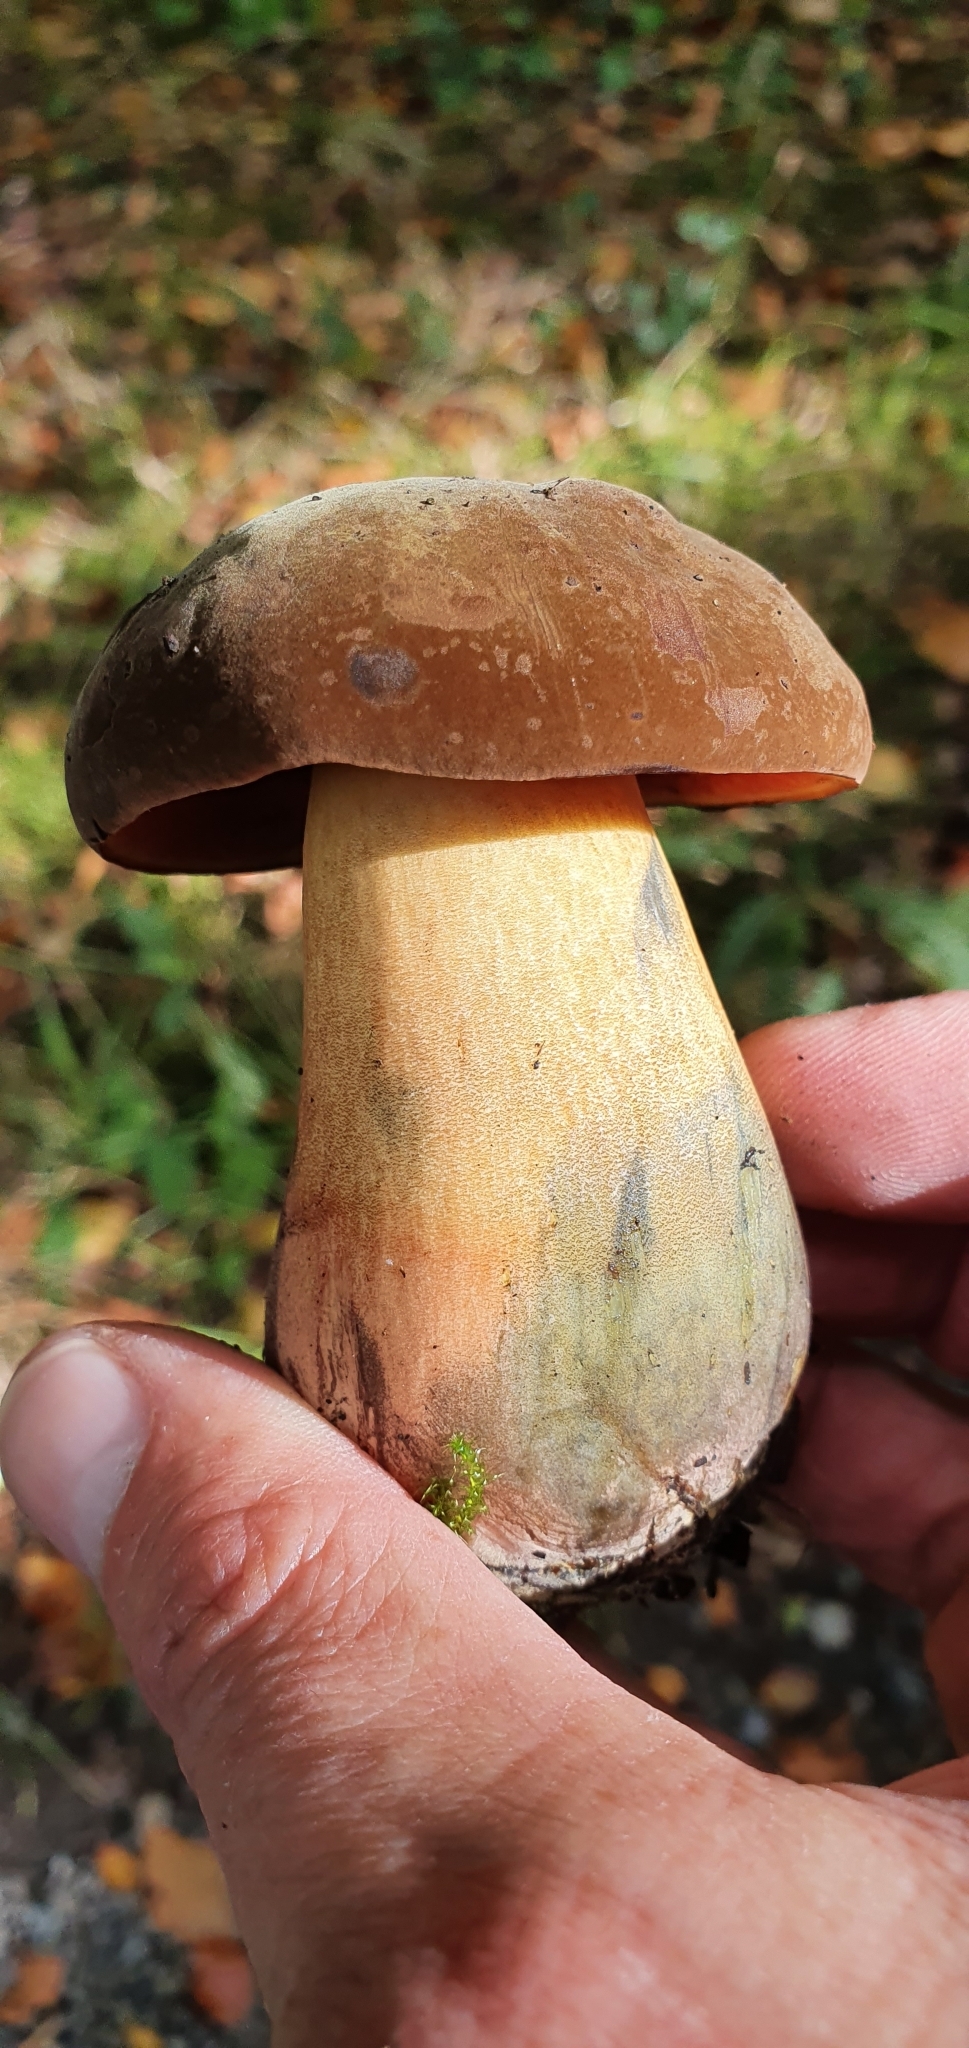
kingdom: Fungi
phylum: Basidiomycota
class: Agaricomycetes
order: Boletales
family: Boletaceae
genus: Neoboletus
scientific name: Neoboletus luridiformis
